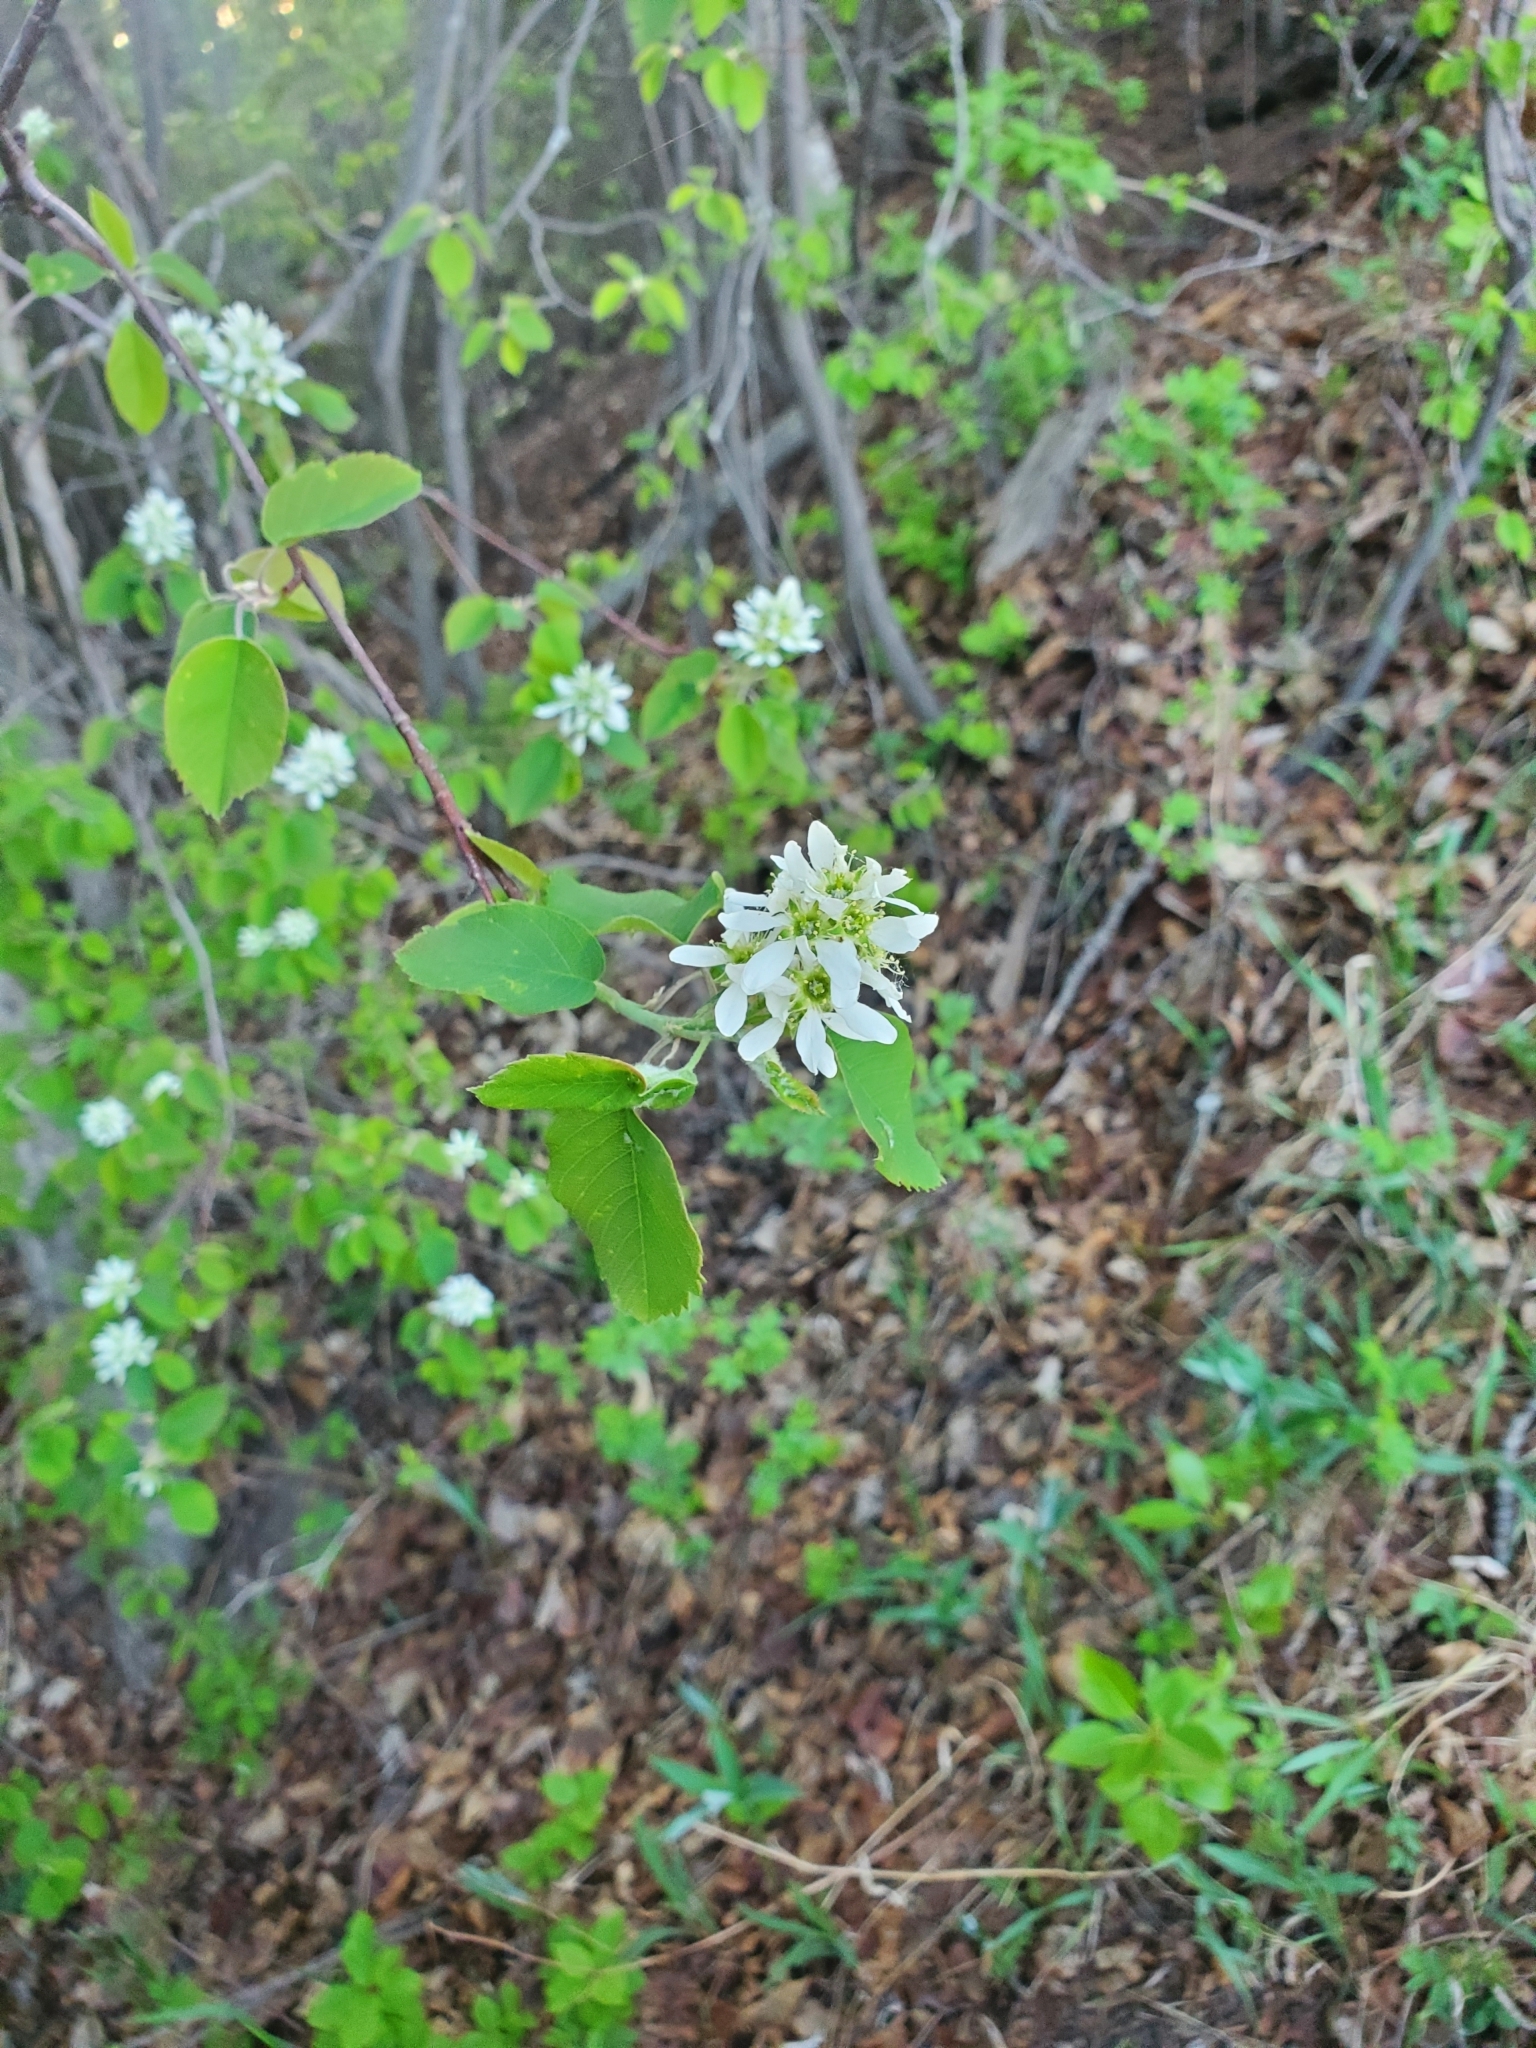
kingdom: Plantae
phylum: Tracheophyta
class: Magnoliopsida
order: Rosales
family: Rosaceae
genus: Amelanchier
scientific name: Amelanchier alnifolia
